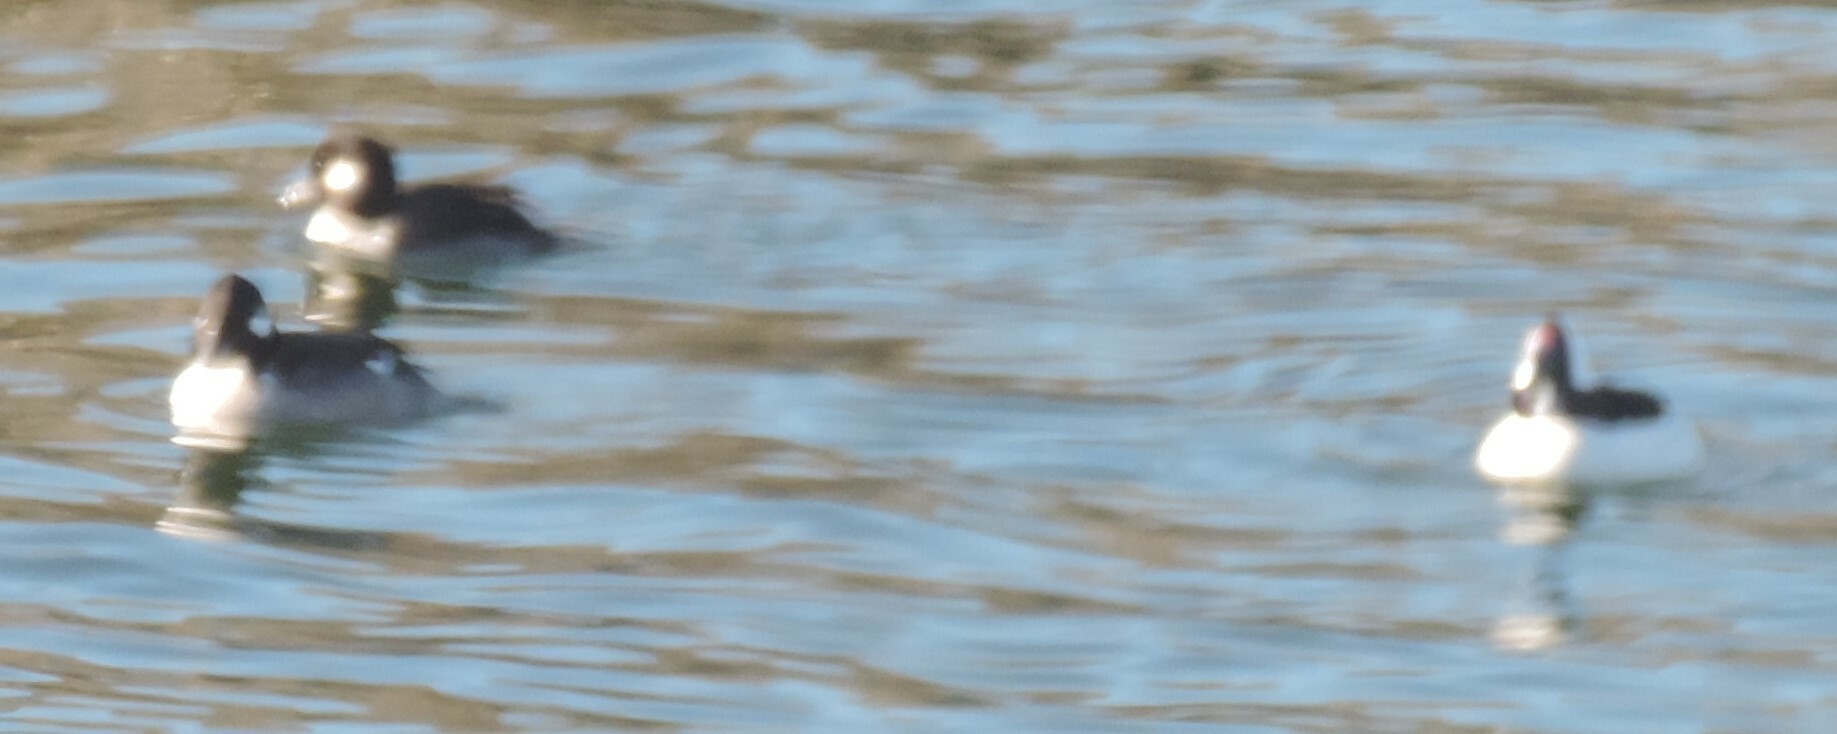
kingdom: Animalia
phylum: Chordata
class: Aves
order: Anseriformes
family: Anatidae
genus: Bucephala
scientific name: Bucephala albeola
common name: Bufflehead
